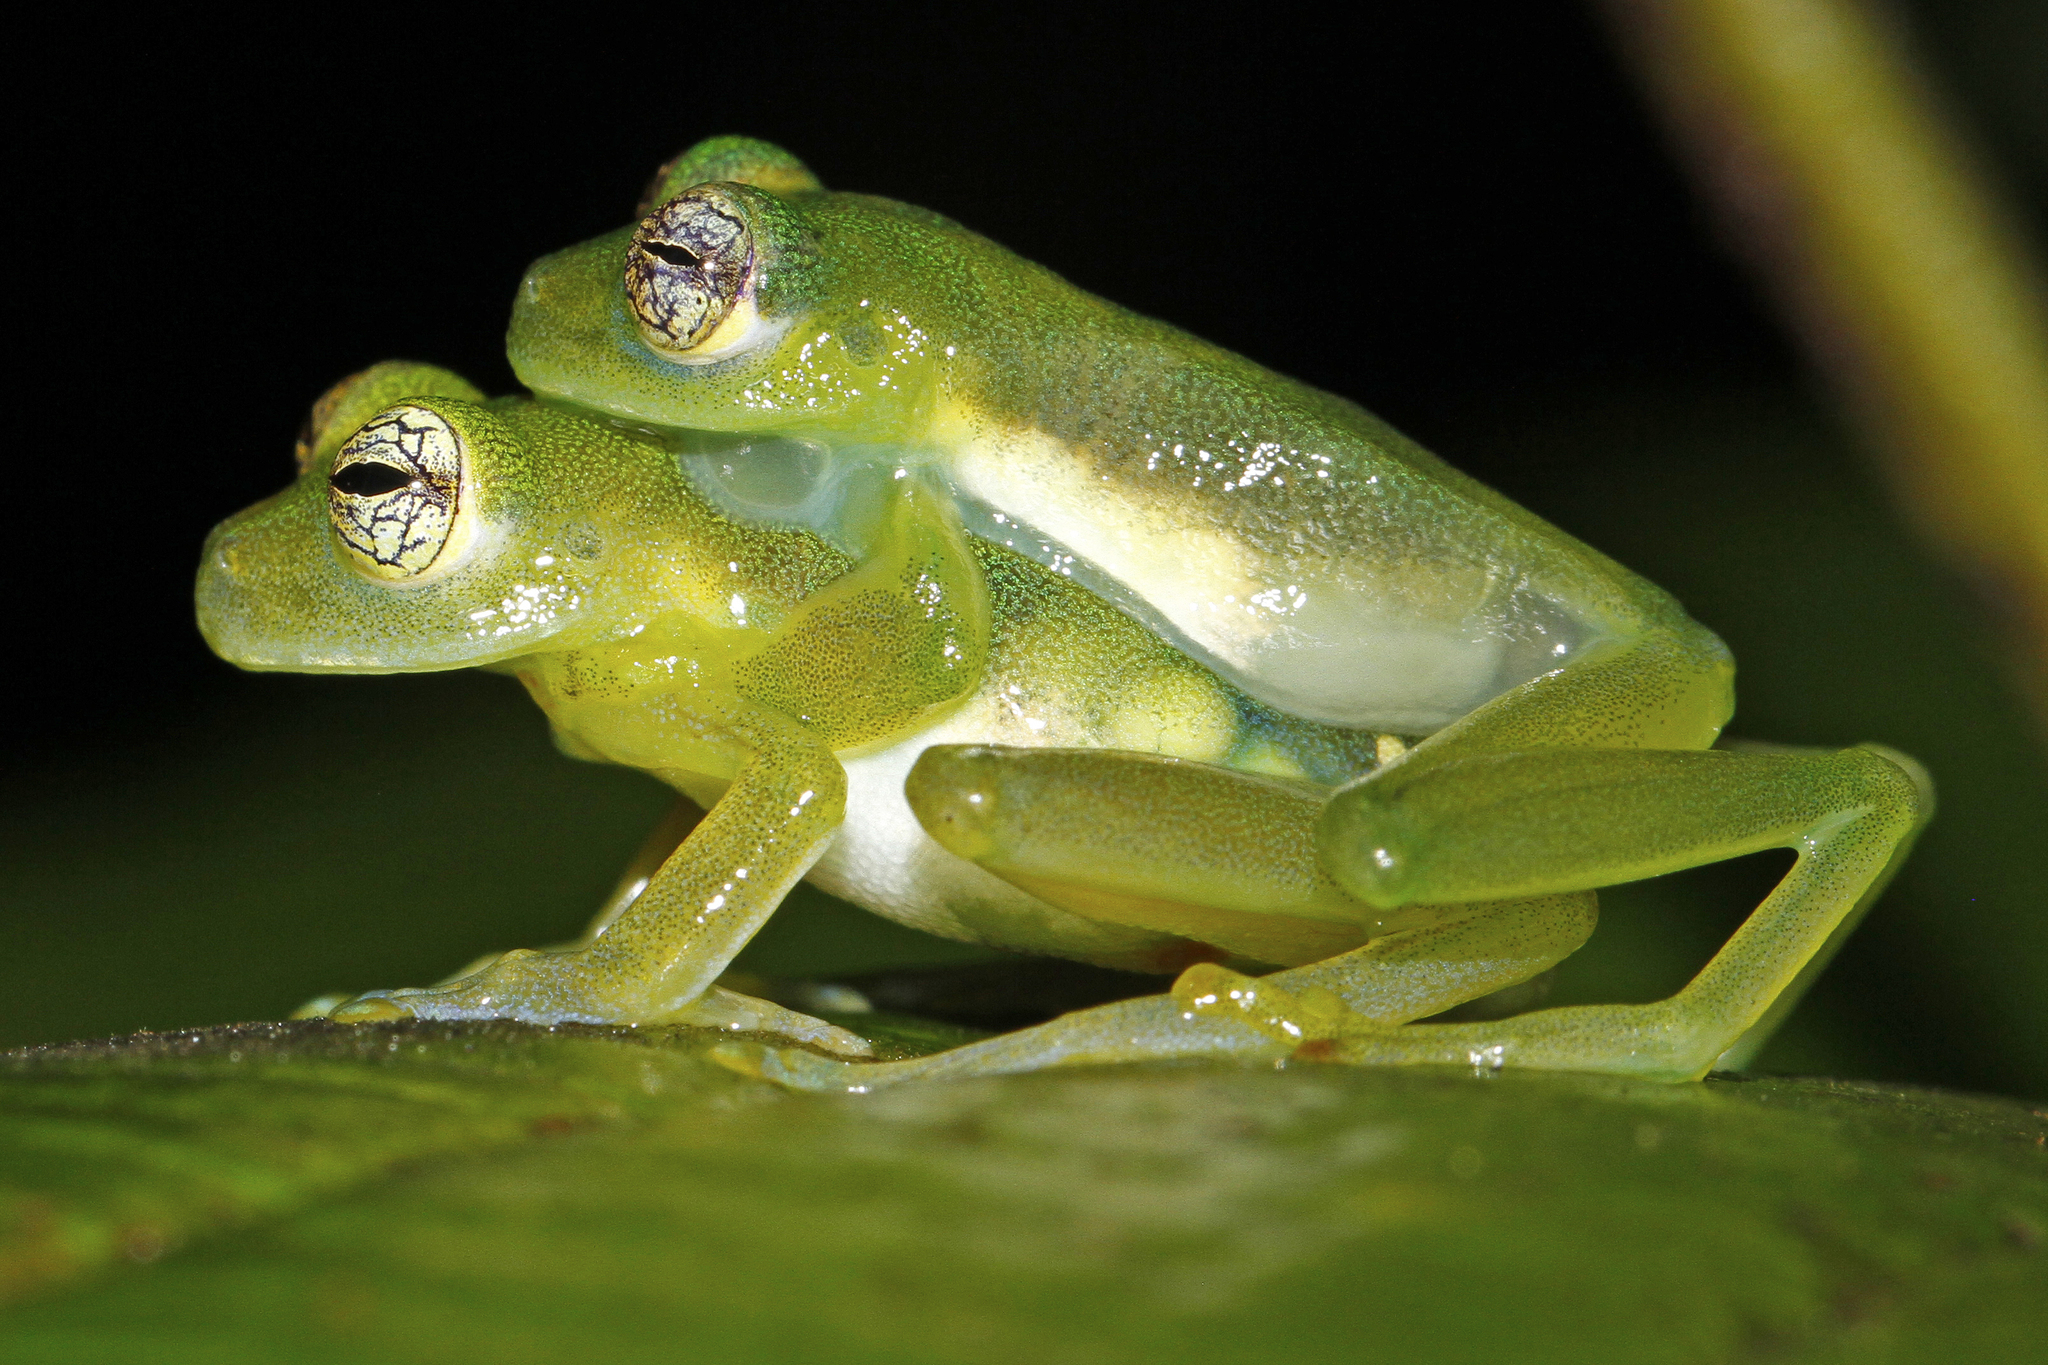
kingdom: Animalia
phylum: Chordata
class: Amphibia
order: Anura
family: Centrolenidae
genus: Espadarana
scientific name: Espadarana prosoblepon
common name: Rana de cristal variable
